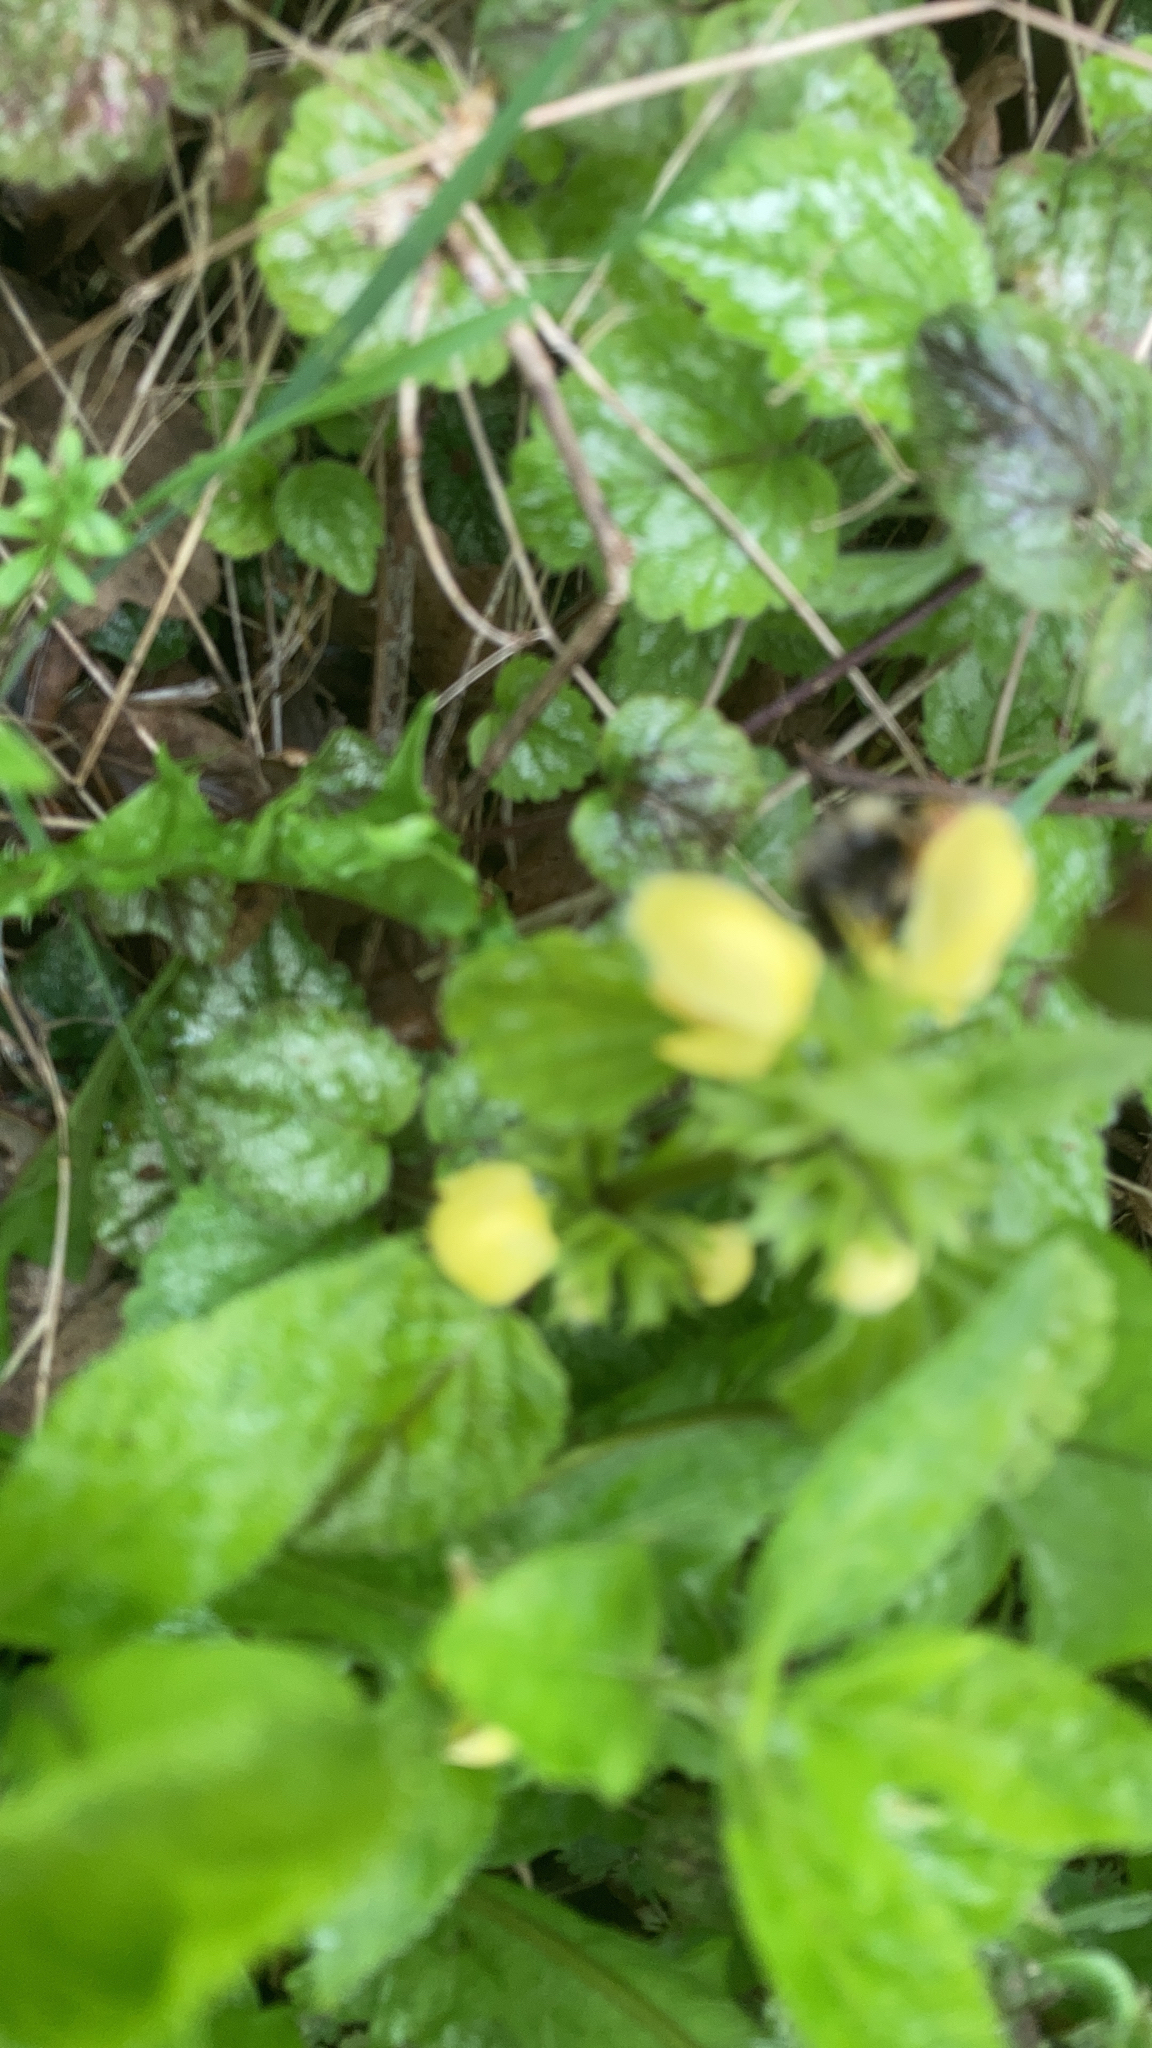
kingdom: Plantae
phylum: Tracheophyta
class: Magnoliopsida
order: Lamiales
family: Lamiaceae
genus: Lamium
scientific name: Lamium galeobdolon
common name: Yellow archangel
